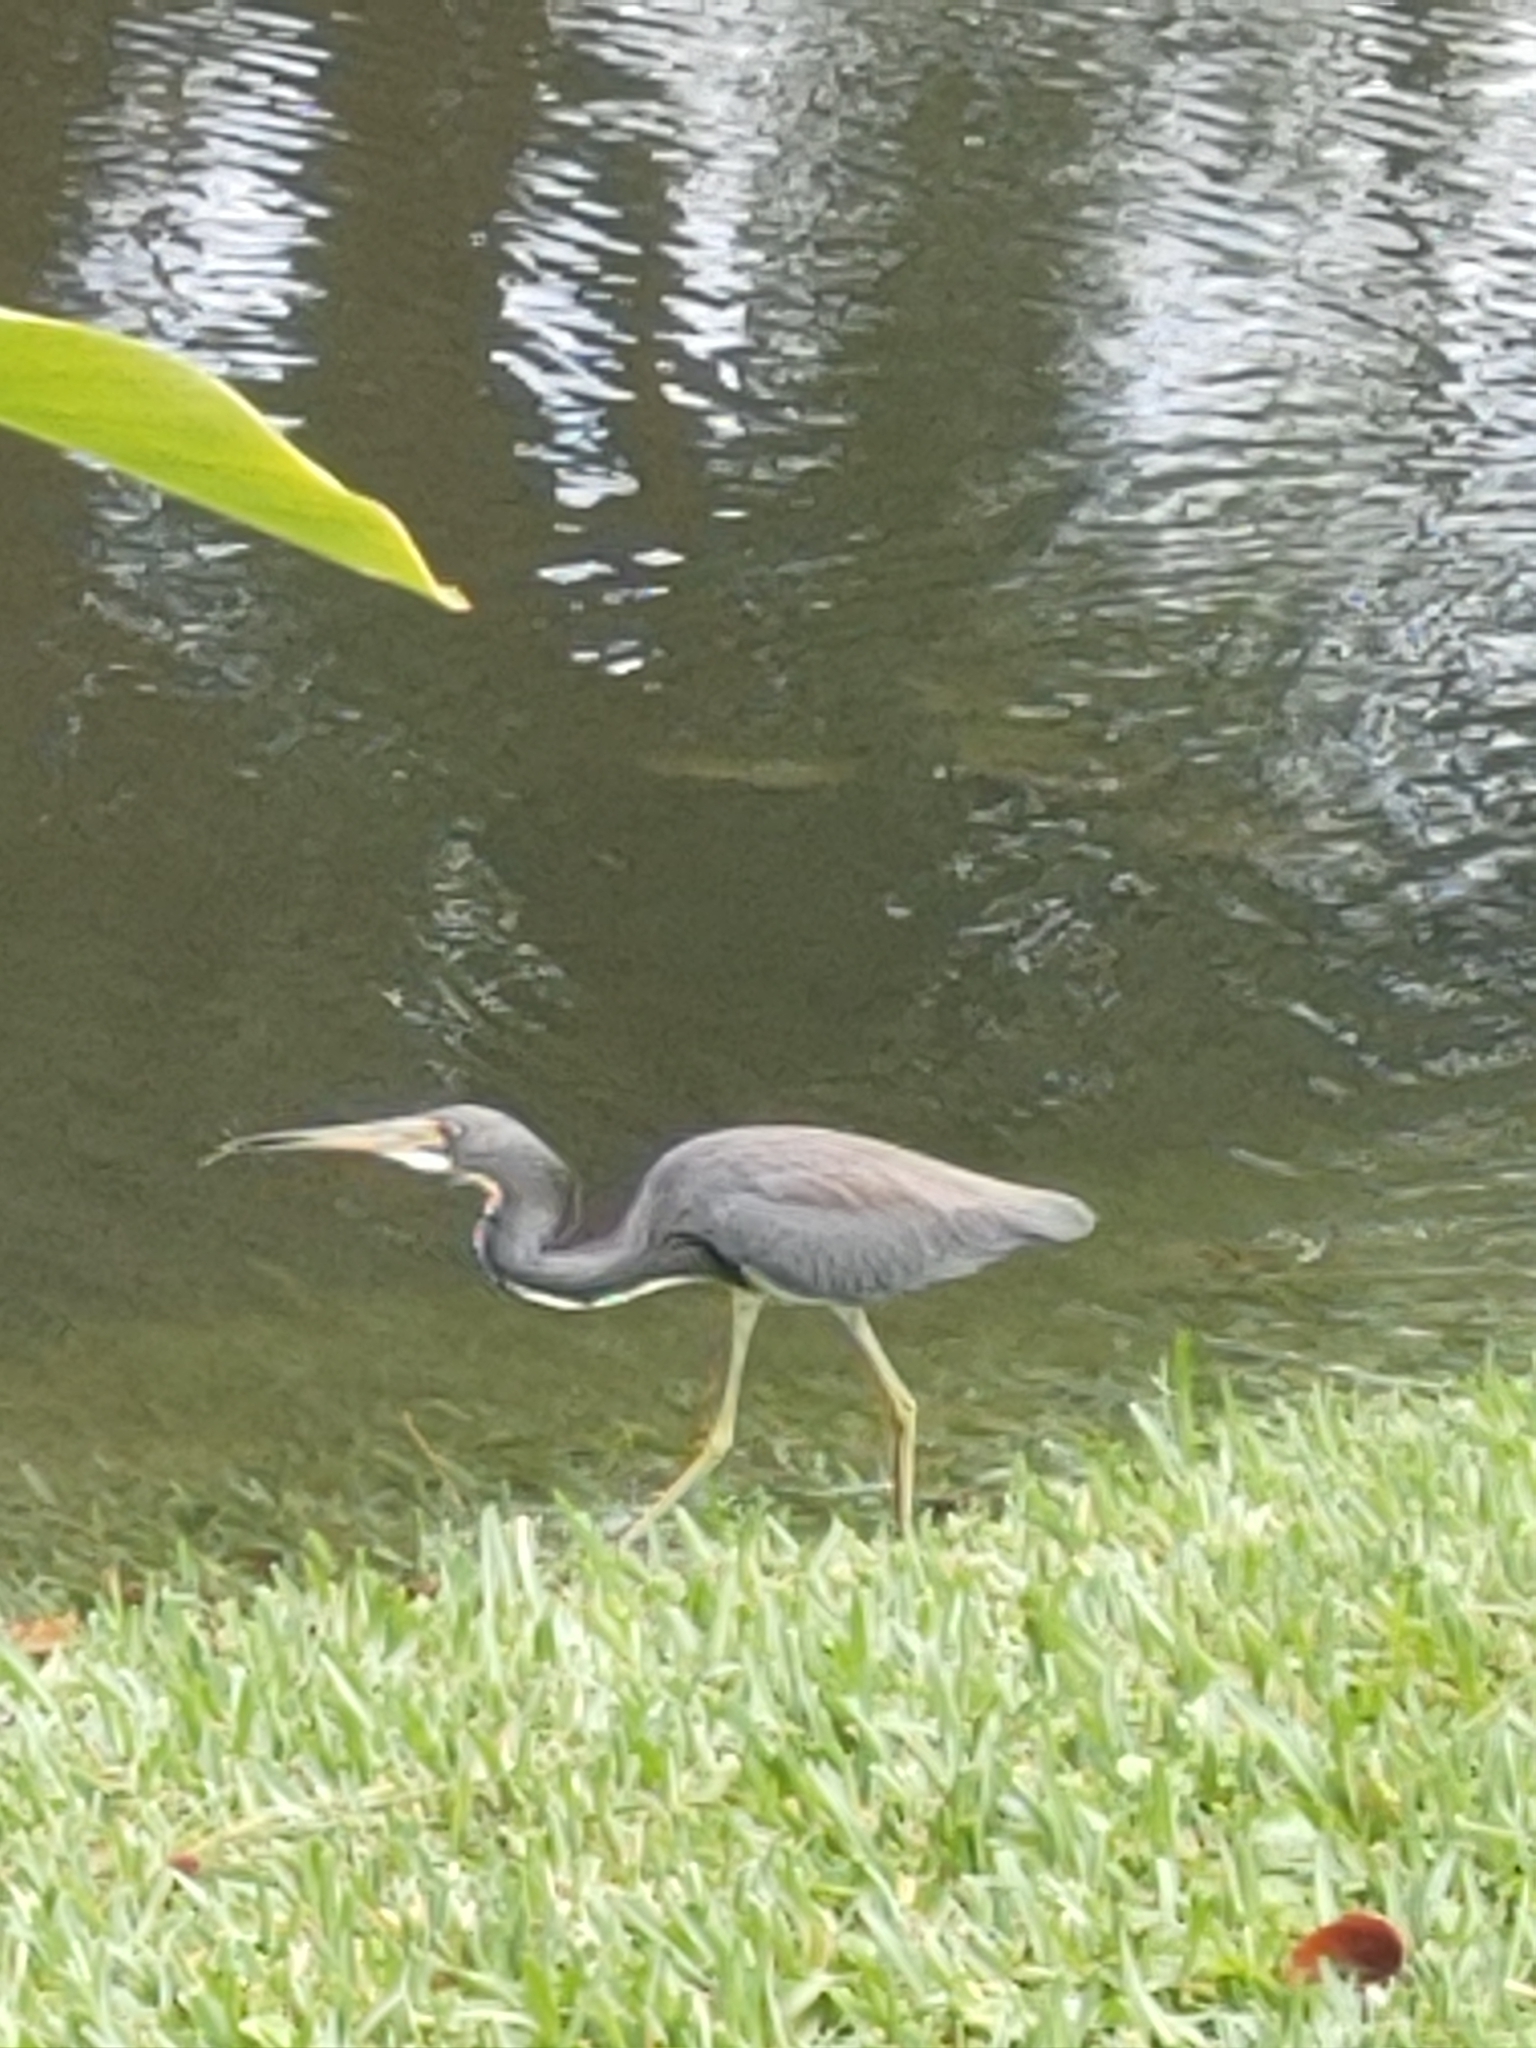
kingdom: Animalia
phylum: Chordata
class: Aves
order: Pelecaniformes
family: Ardeidae
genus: Egretta
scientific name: Egretta tricolor
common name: Tricolored heron
